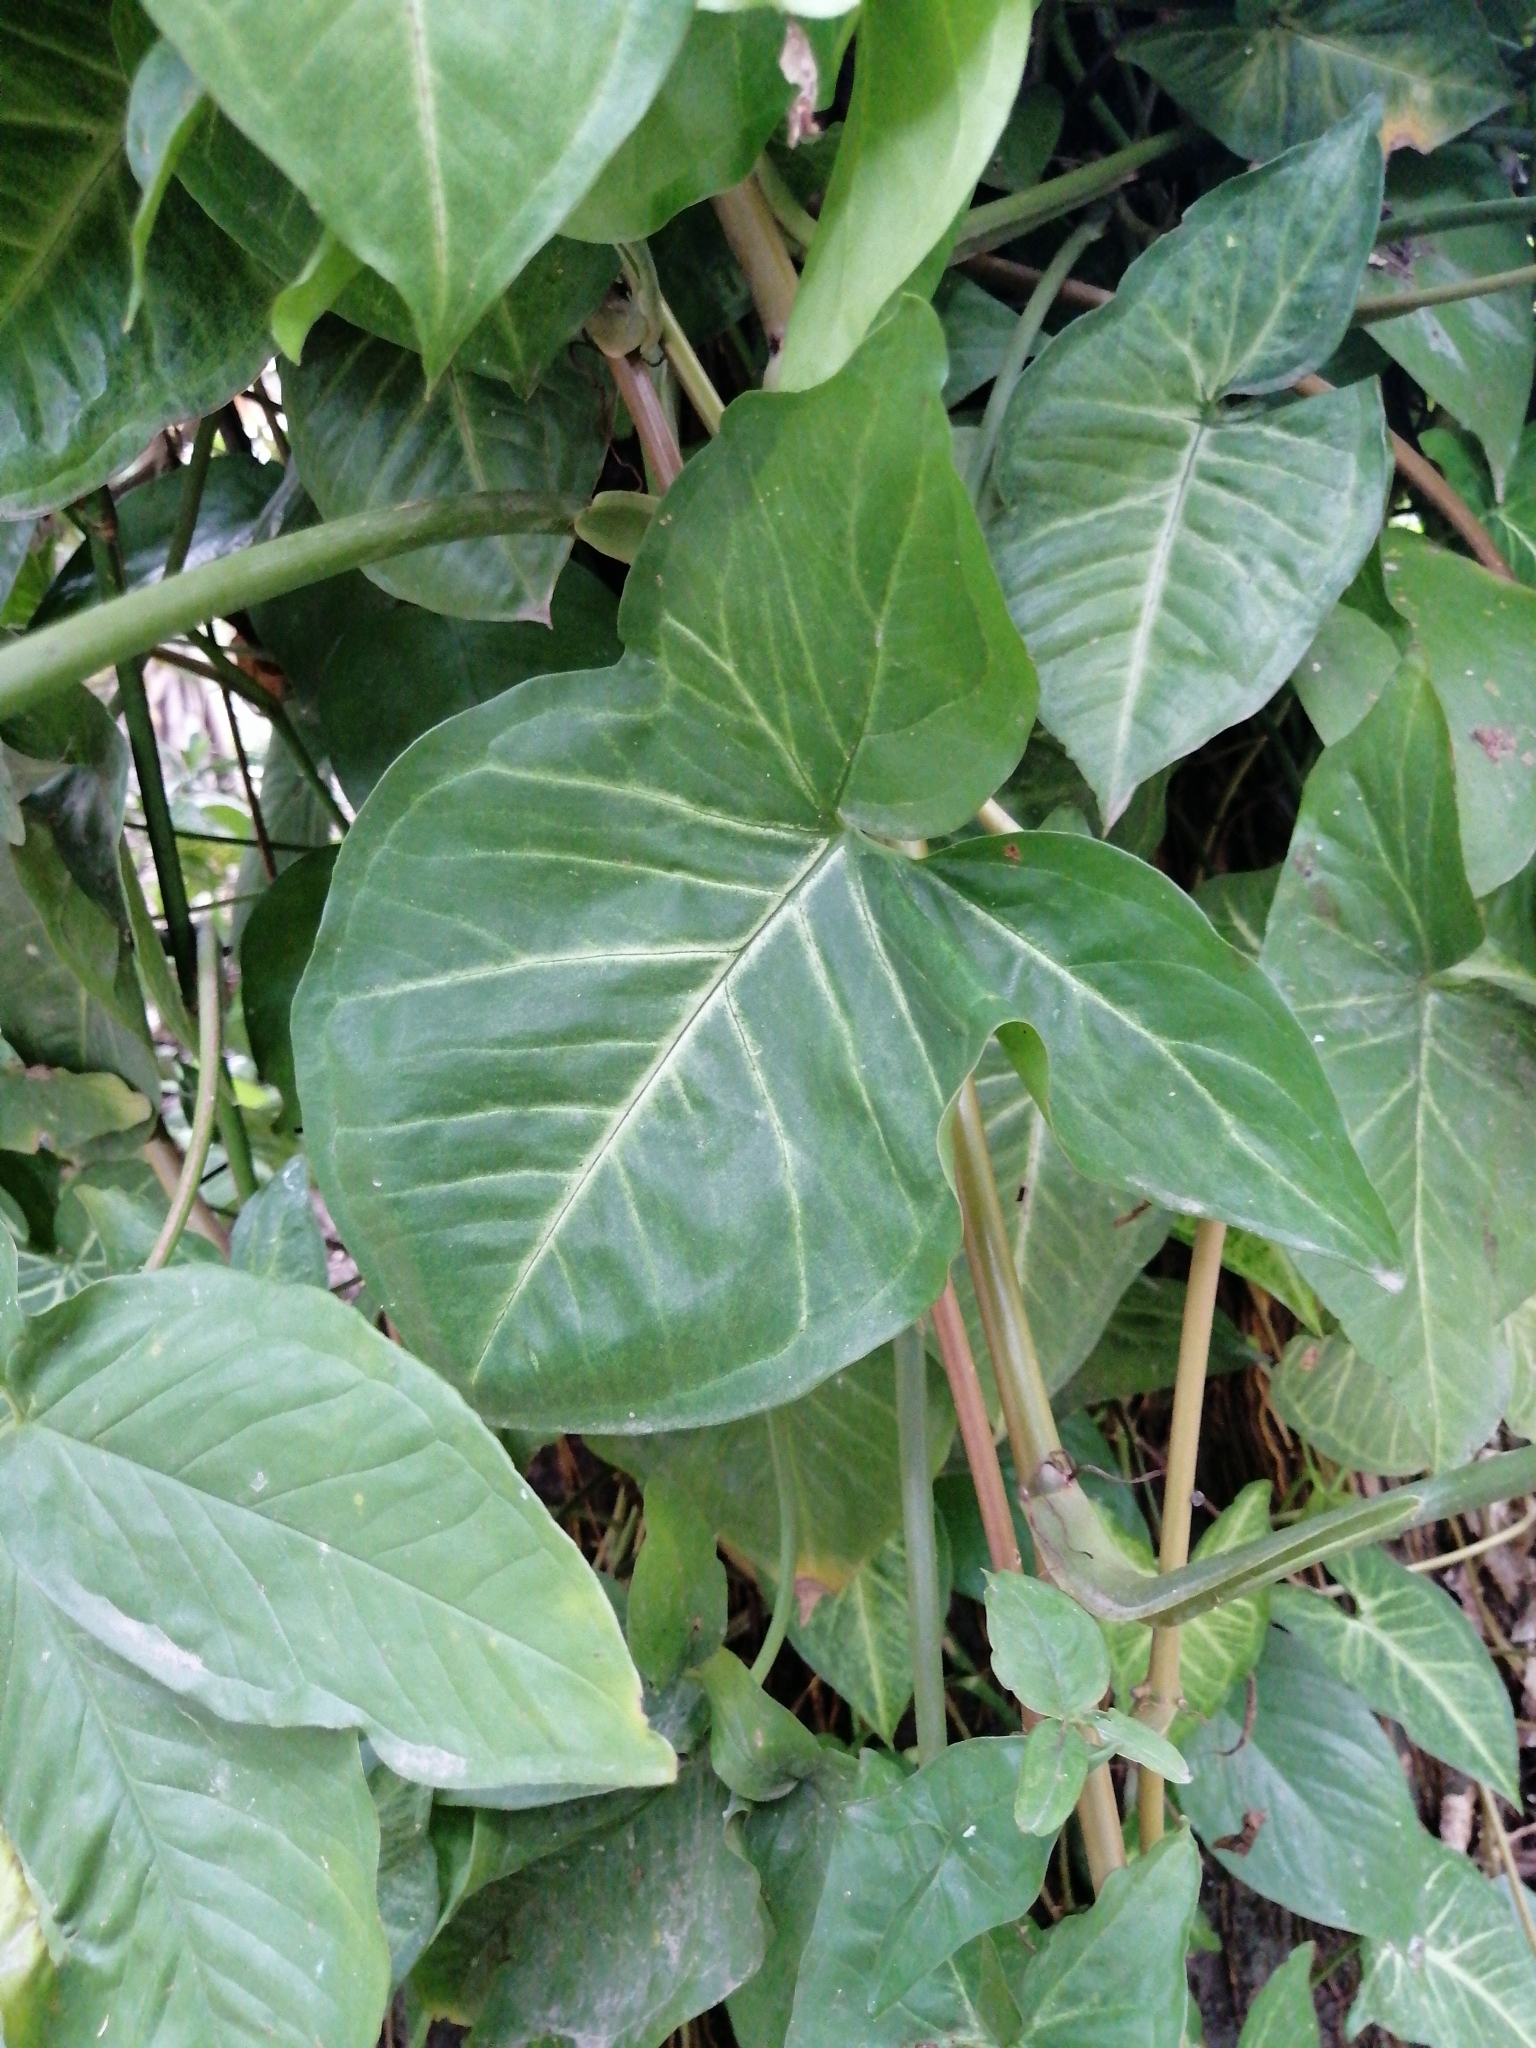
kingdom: Plantae
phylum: Tracheophyta
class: Liliopsida
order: Alismatales
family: Araceae
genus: Syngonium
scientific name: Syngonium podophyllum
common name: American evergreen
